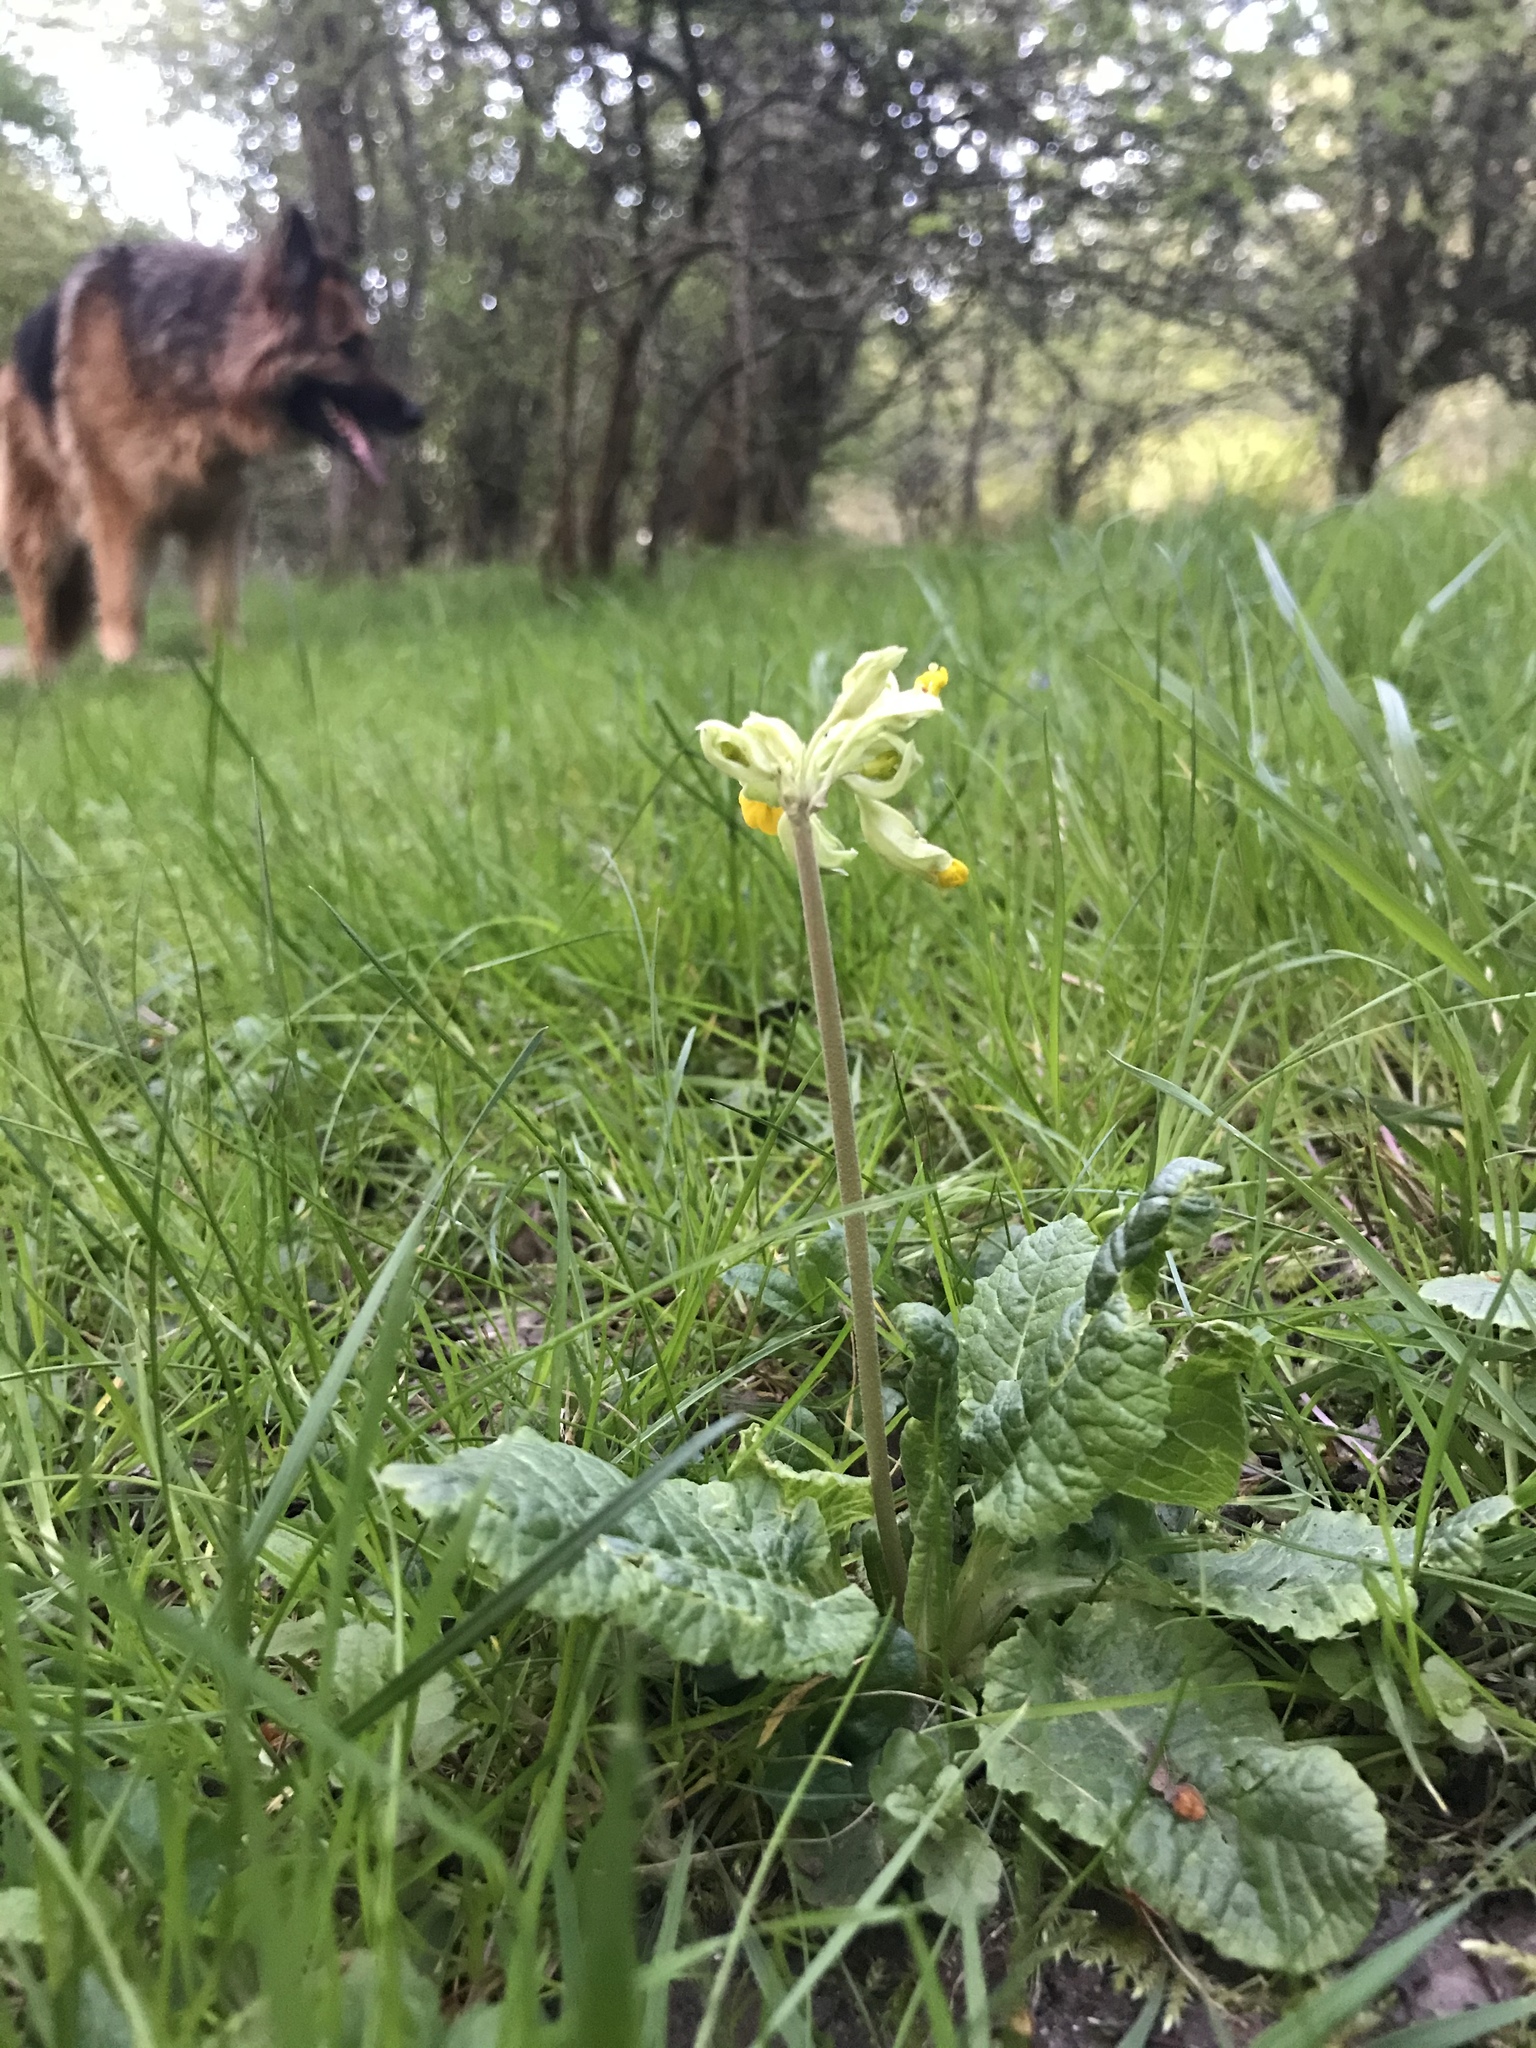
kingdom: Plantae
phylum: Tracheophyta
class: Magnoliopsida
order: Ericales
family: Primulaceae
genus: Primula
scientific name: Primula veris
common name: Cowslip
